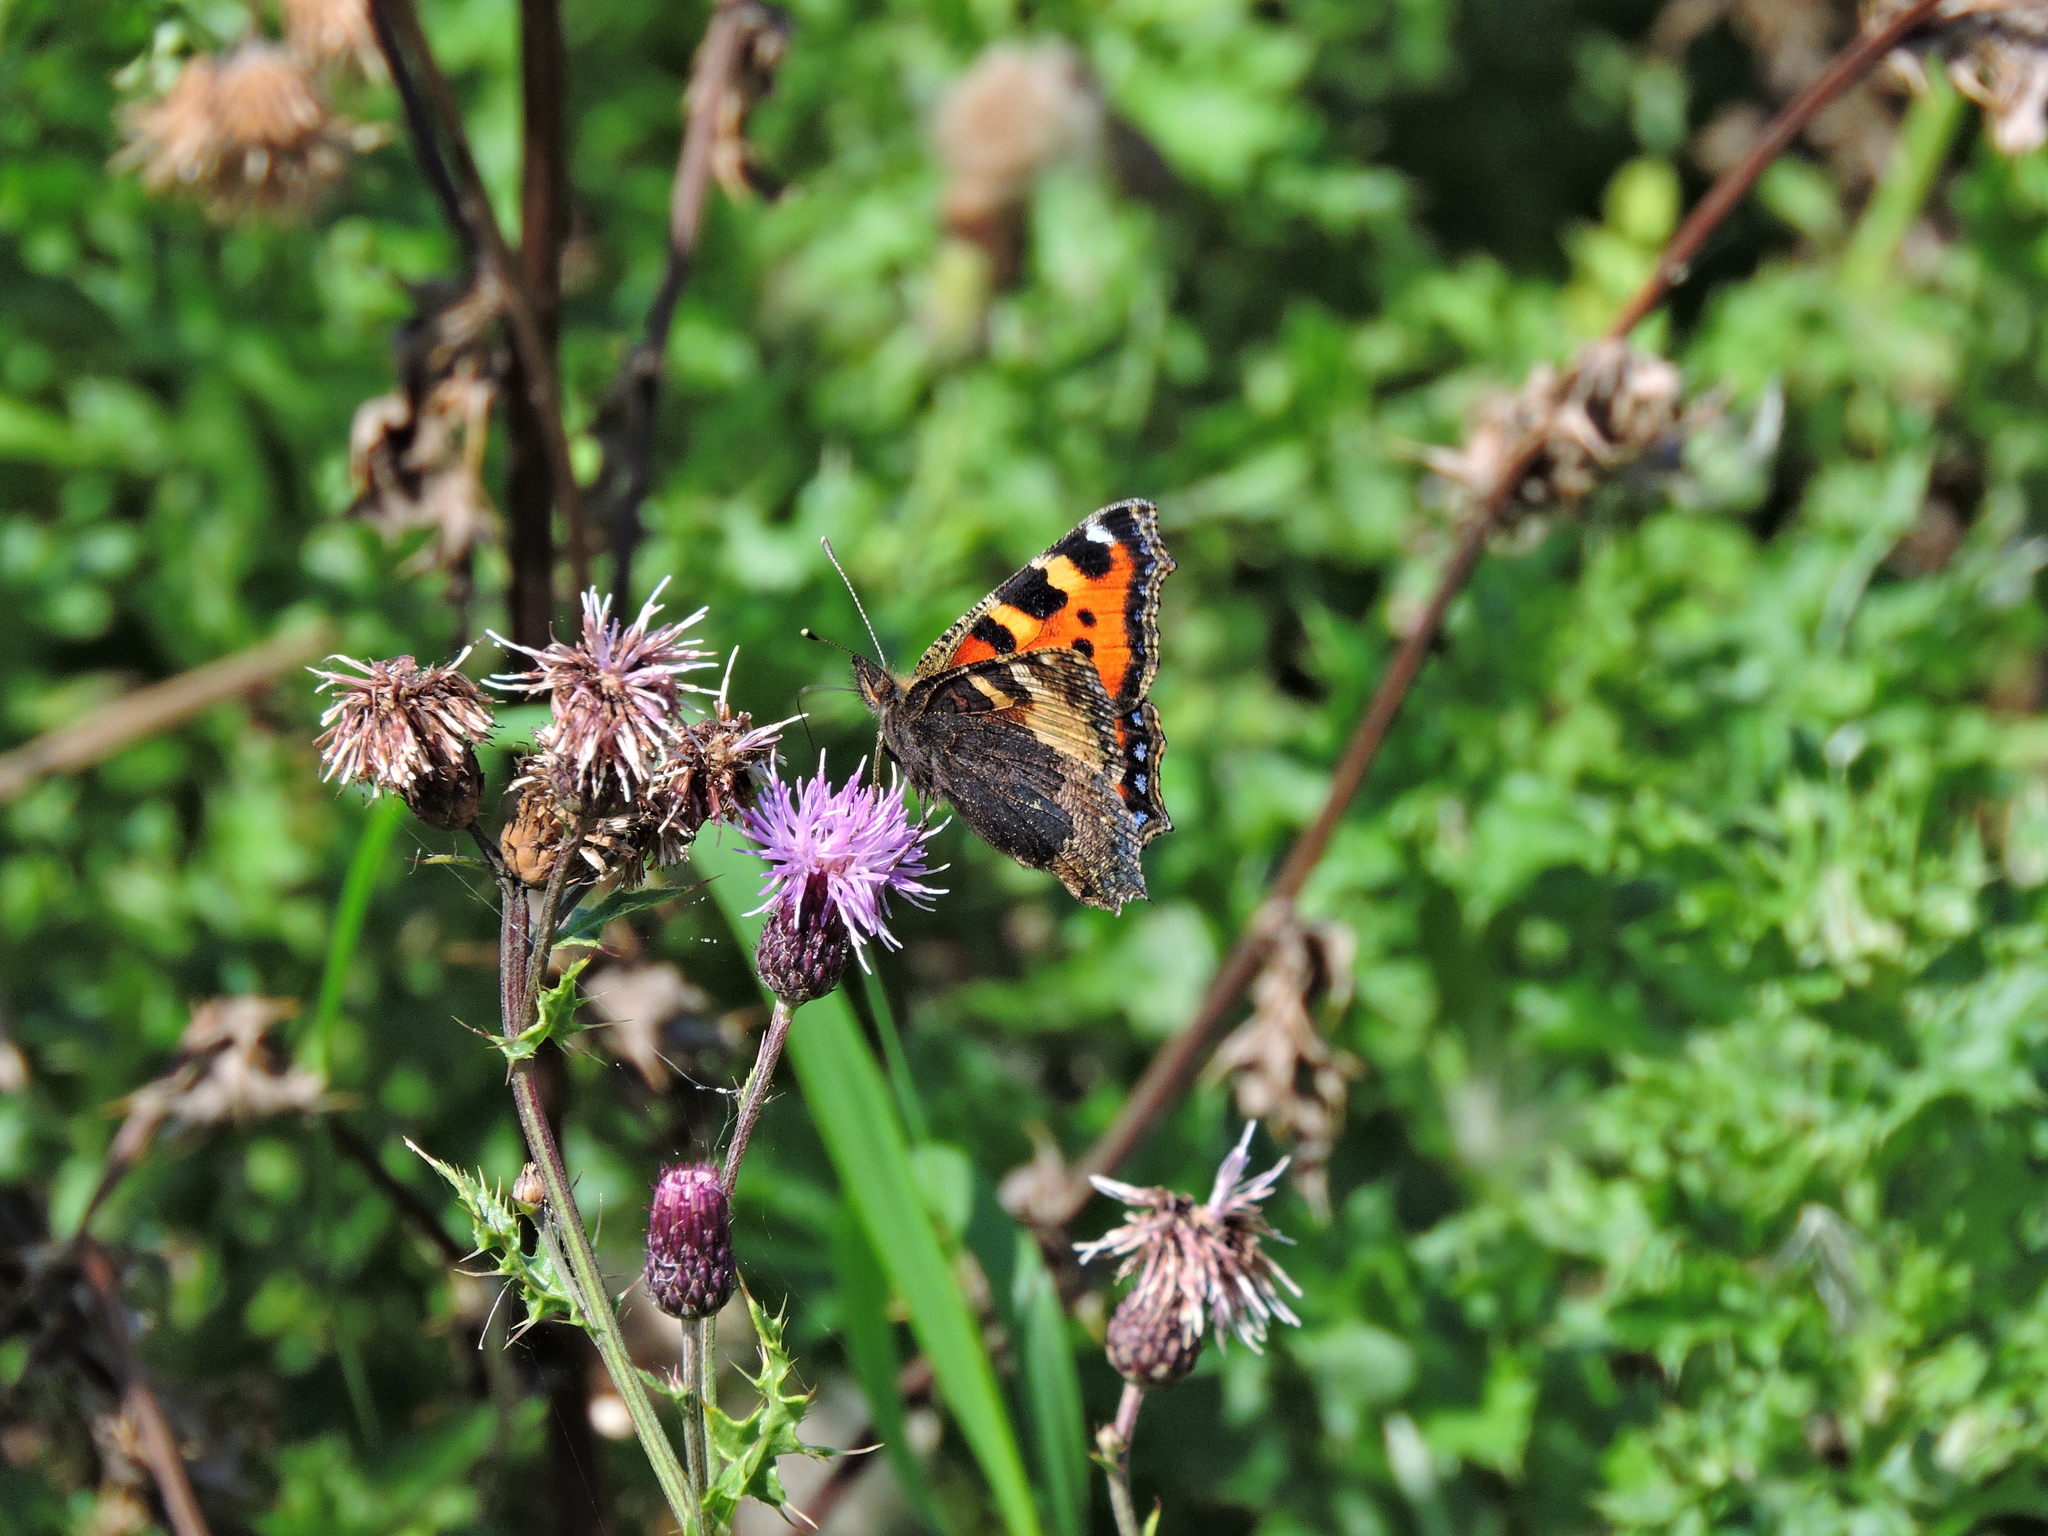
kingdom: Animalia
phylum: Arthropoda
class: Insecta
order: Lepidoptera
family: Nymphalidae
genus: Aglais
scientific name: Aglais urticae
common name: Small tortoiseshell
